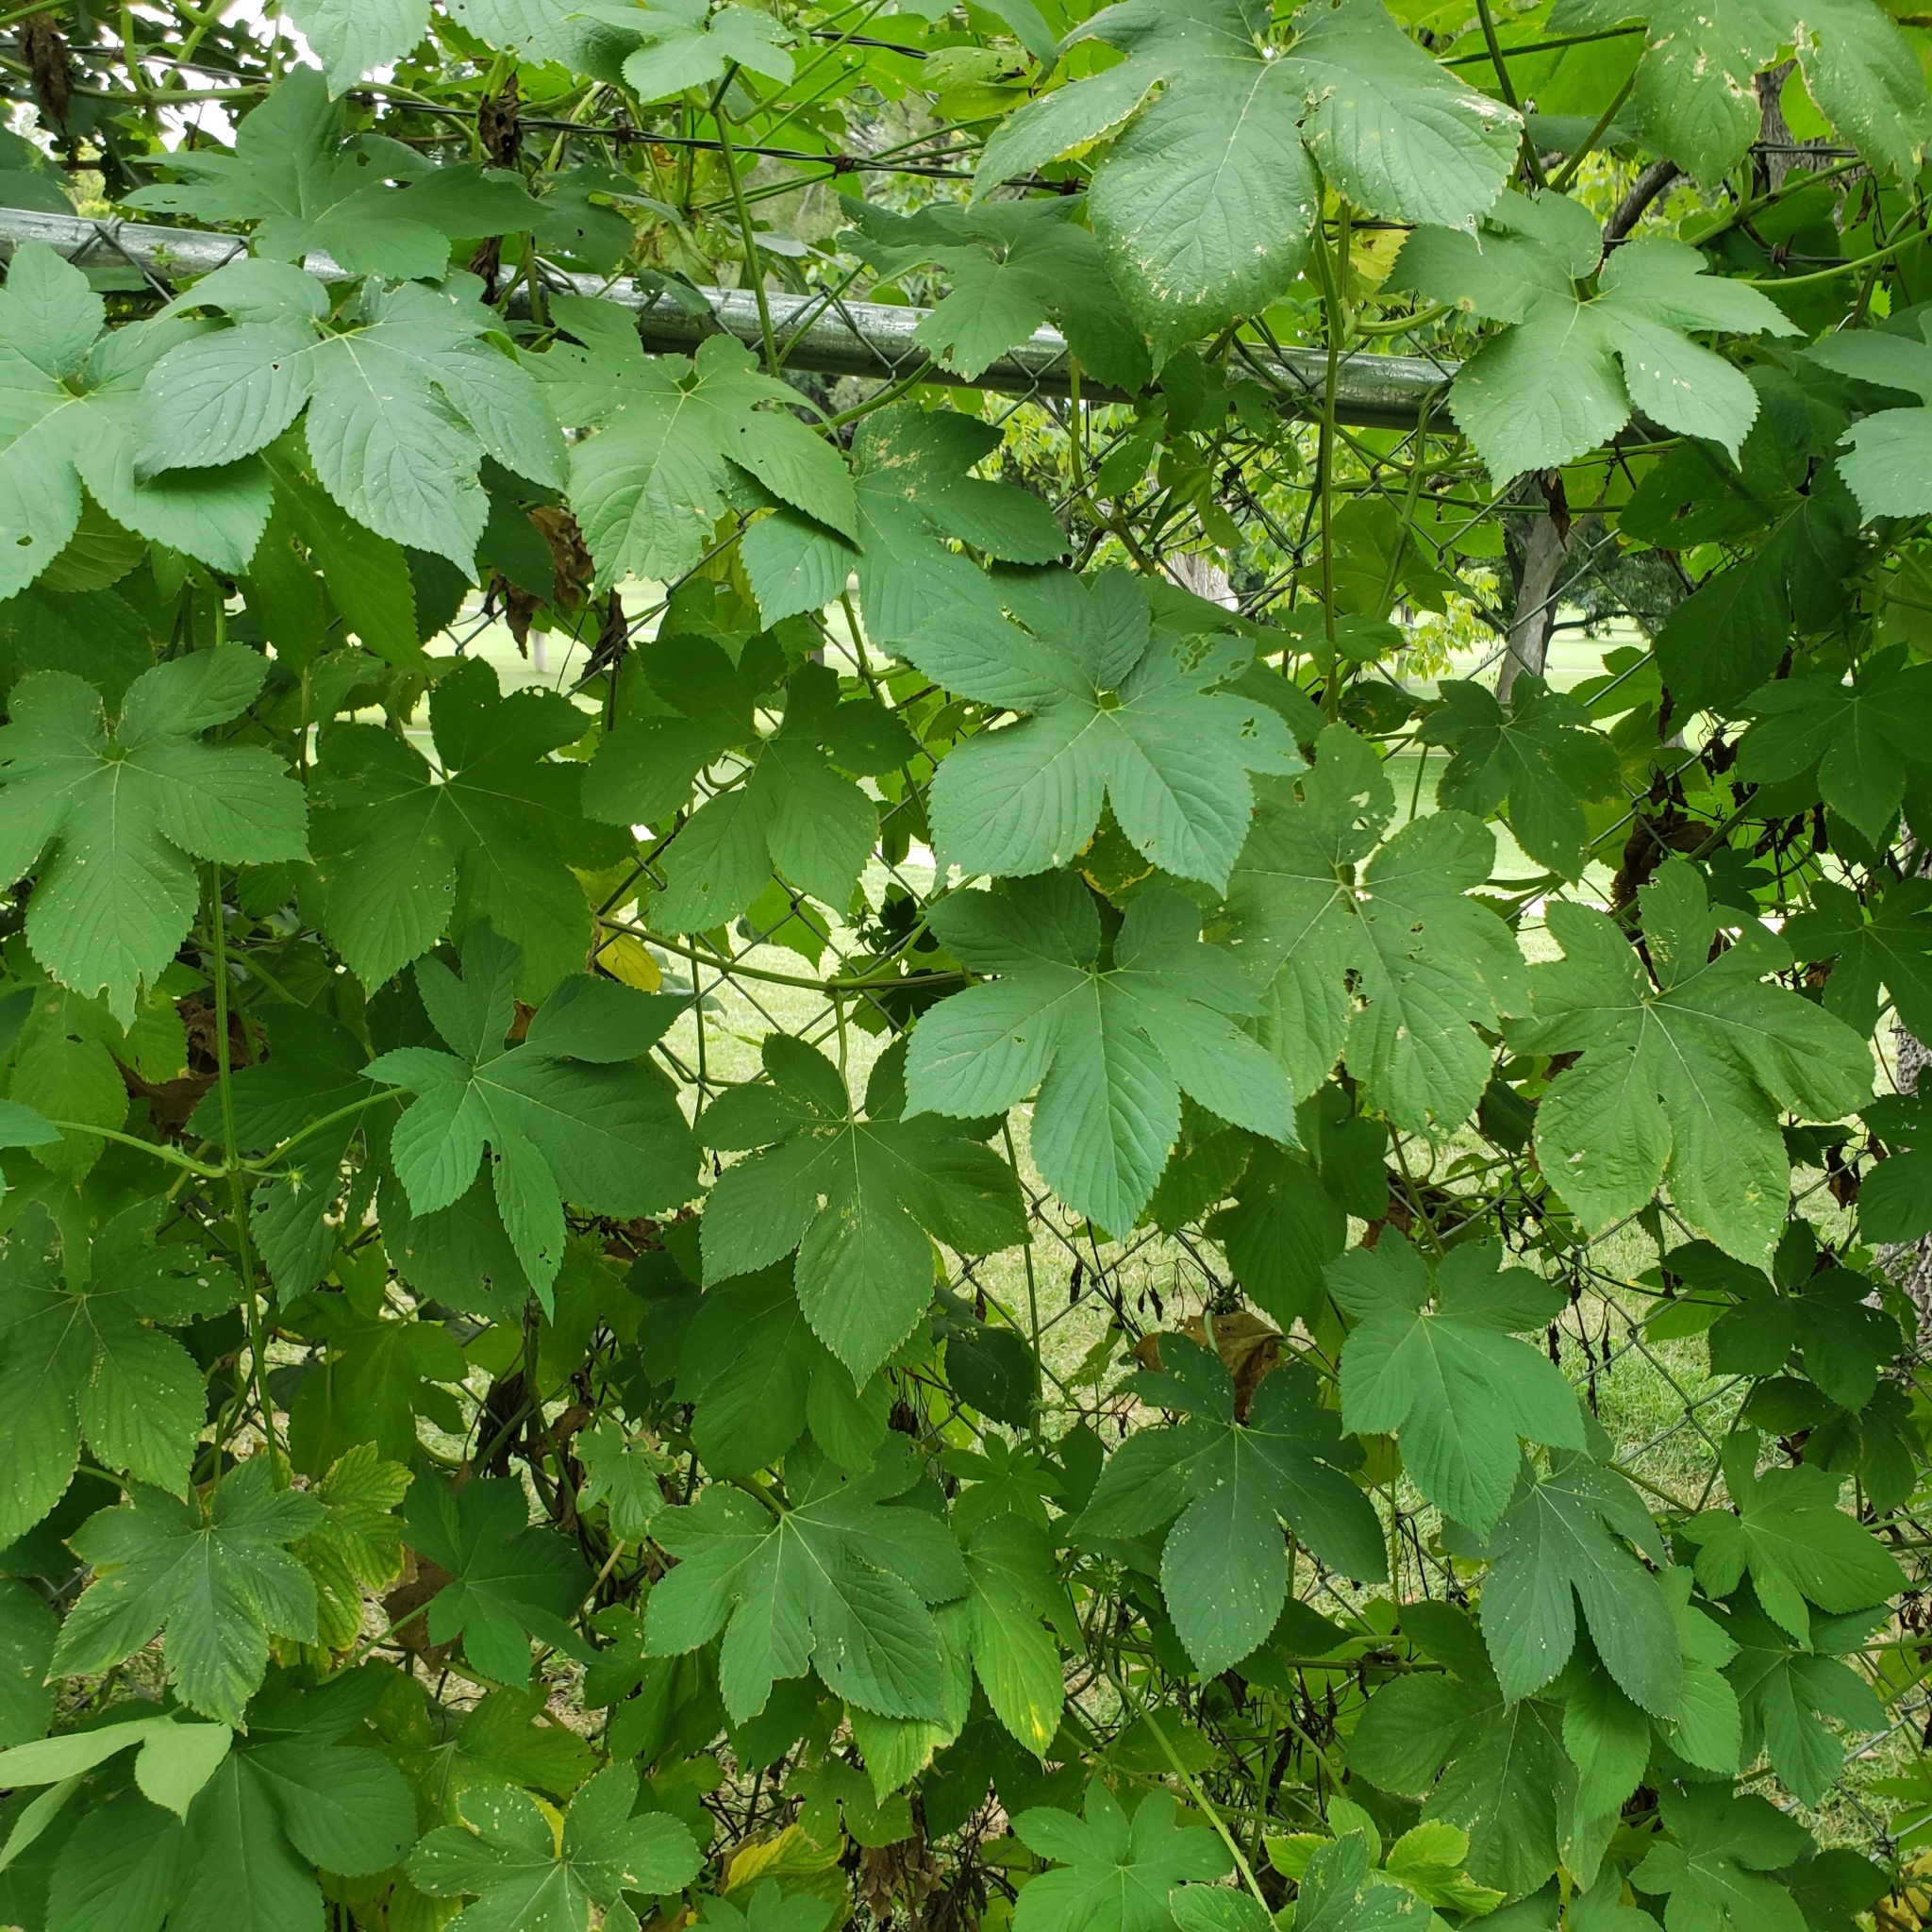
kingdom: Plantae
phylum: Tracheophyta
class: Magnoliopsida
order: Rosales
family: Cannabaceae
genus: Humulus
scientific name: Humulus scandens
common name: Japanese hop
